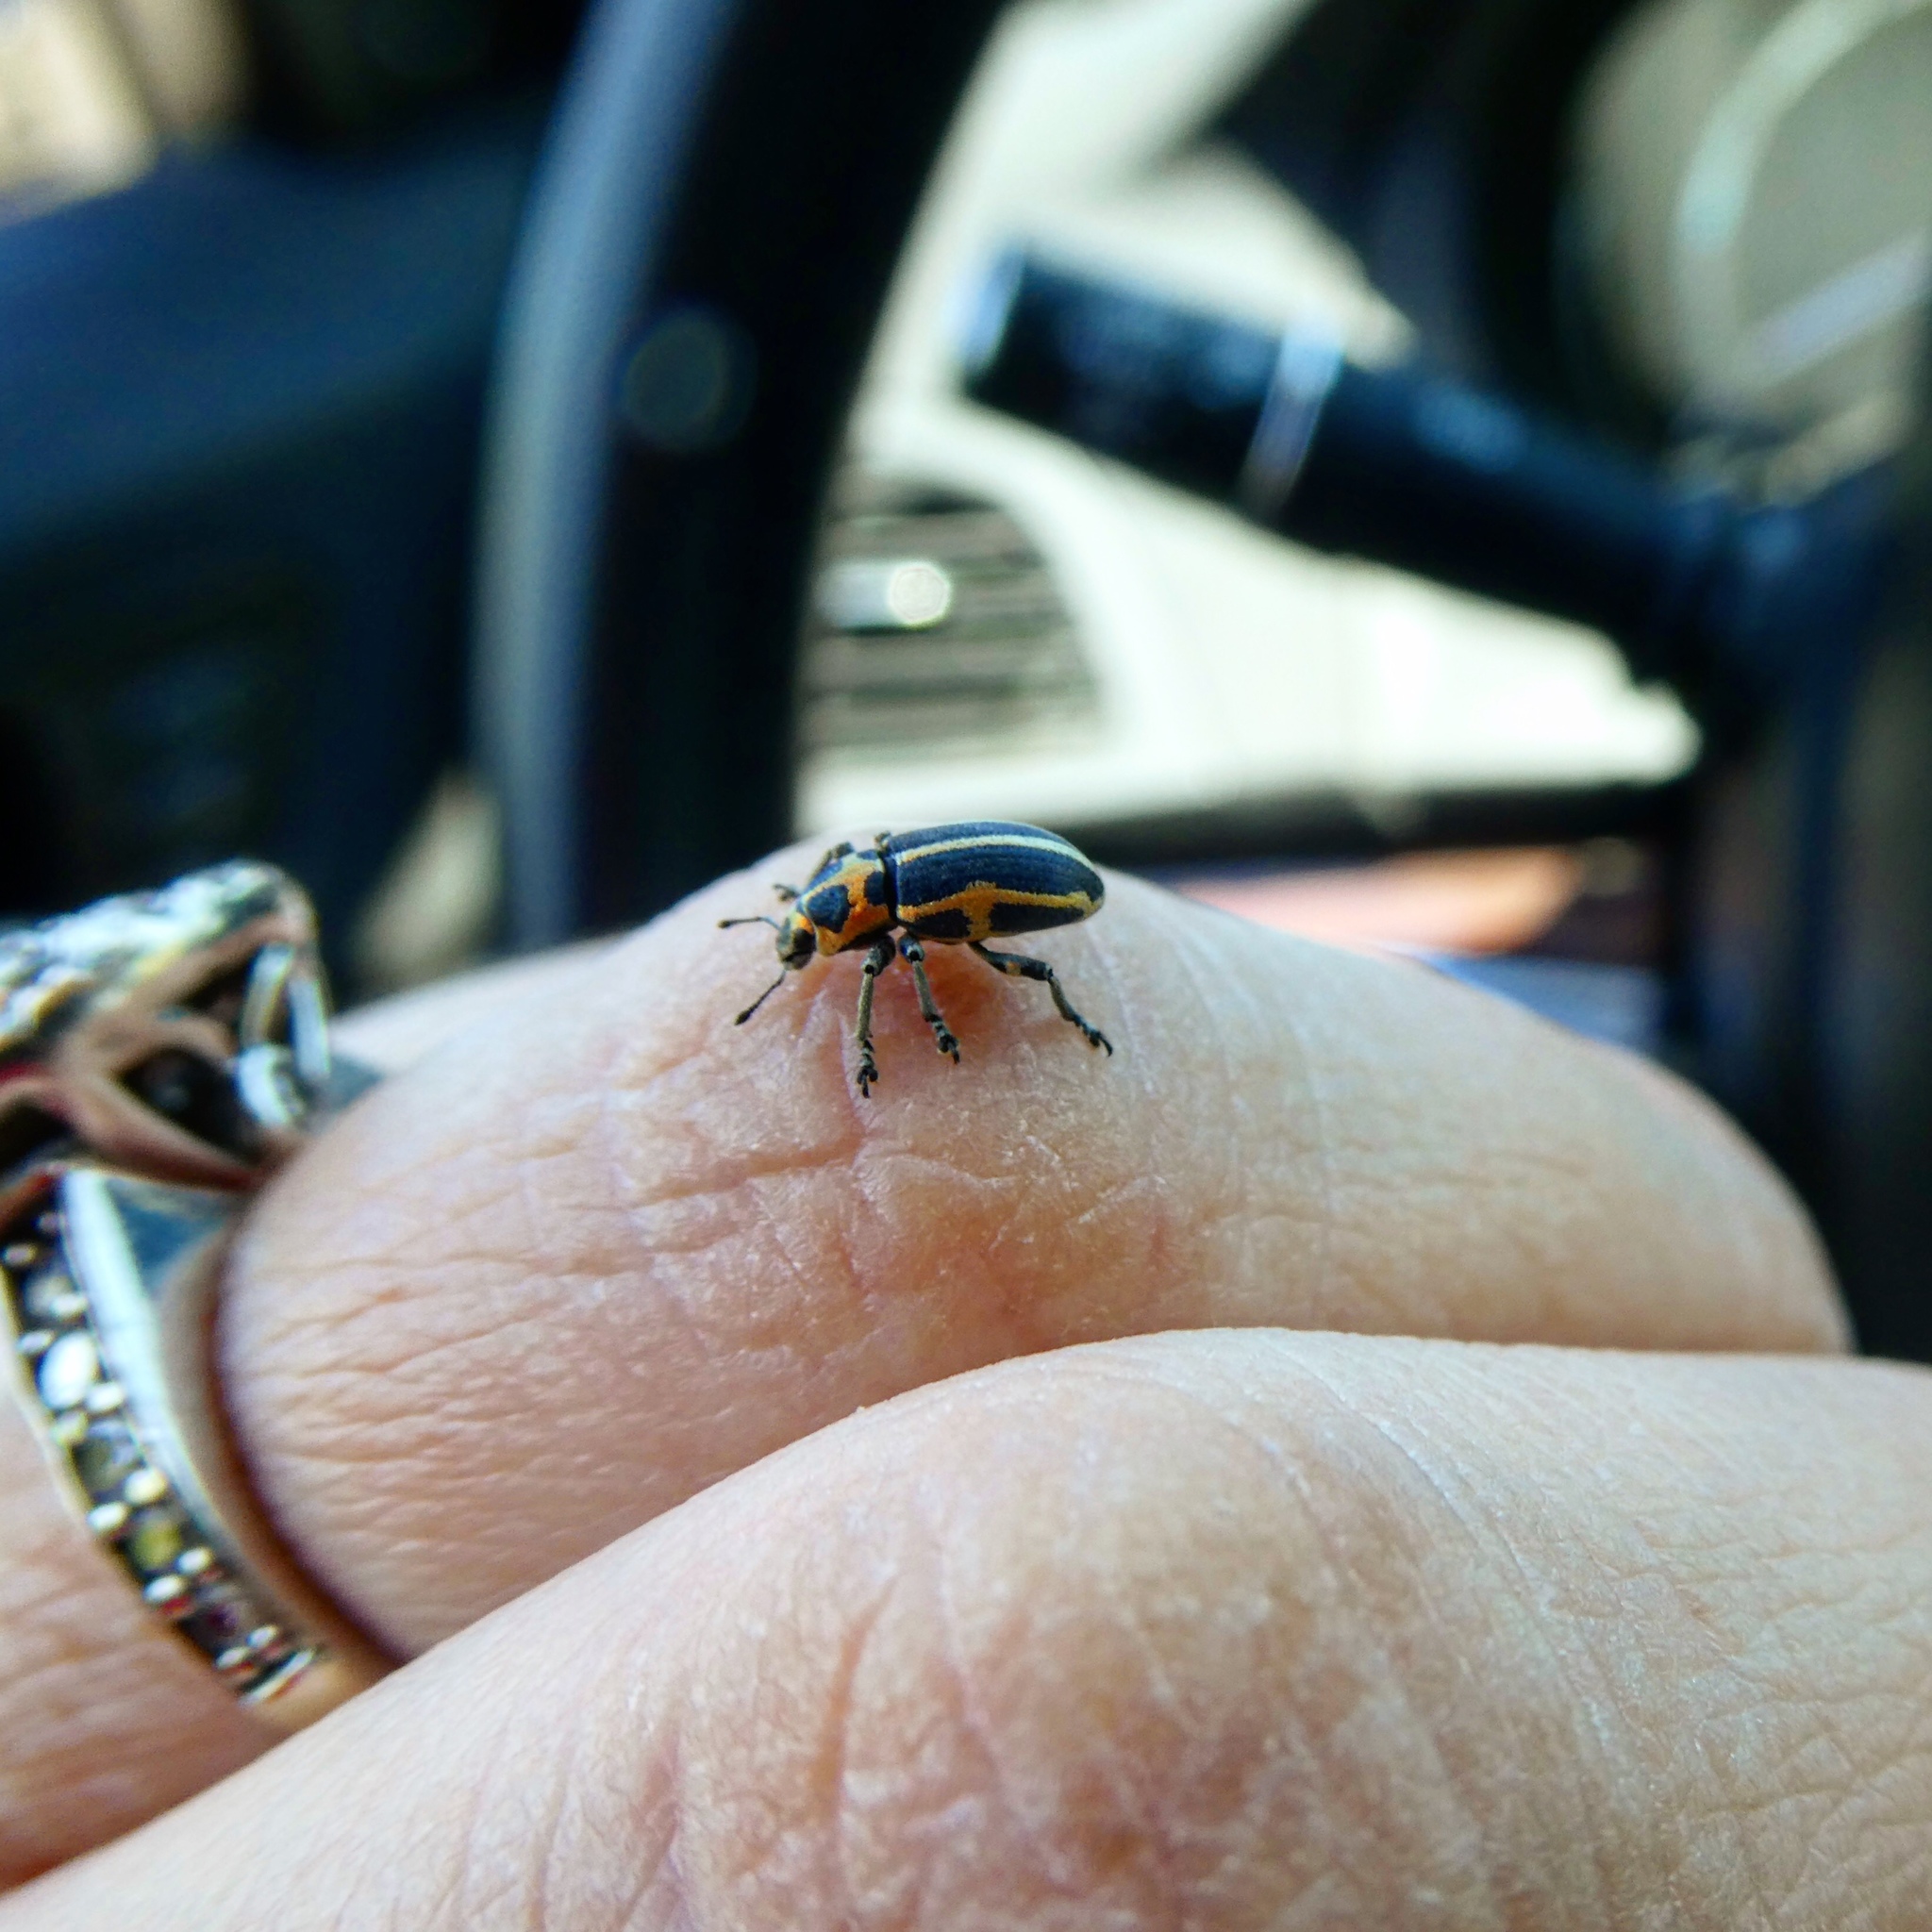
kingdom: Animalia
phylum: Arthropoda
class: Insecta
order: Coleoptera
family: Curculionidae
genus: Eudiagogus
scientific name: Eudiagogus pulcher
